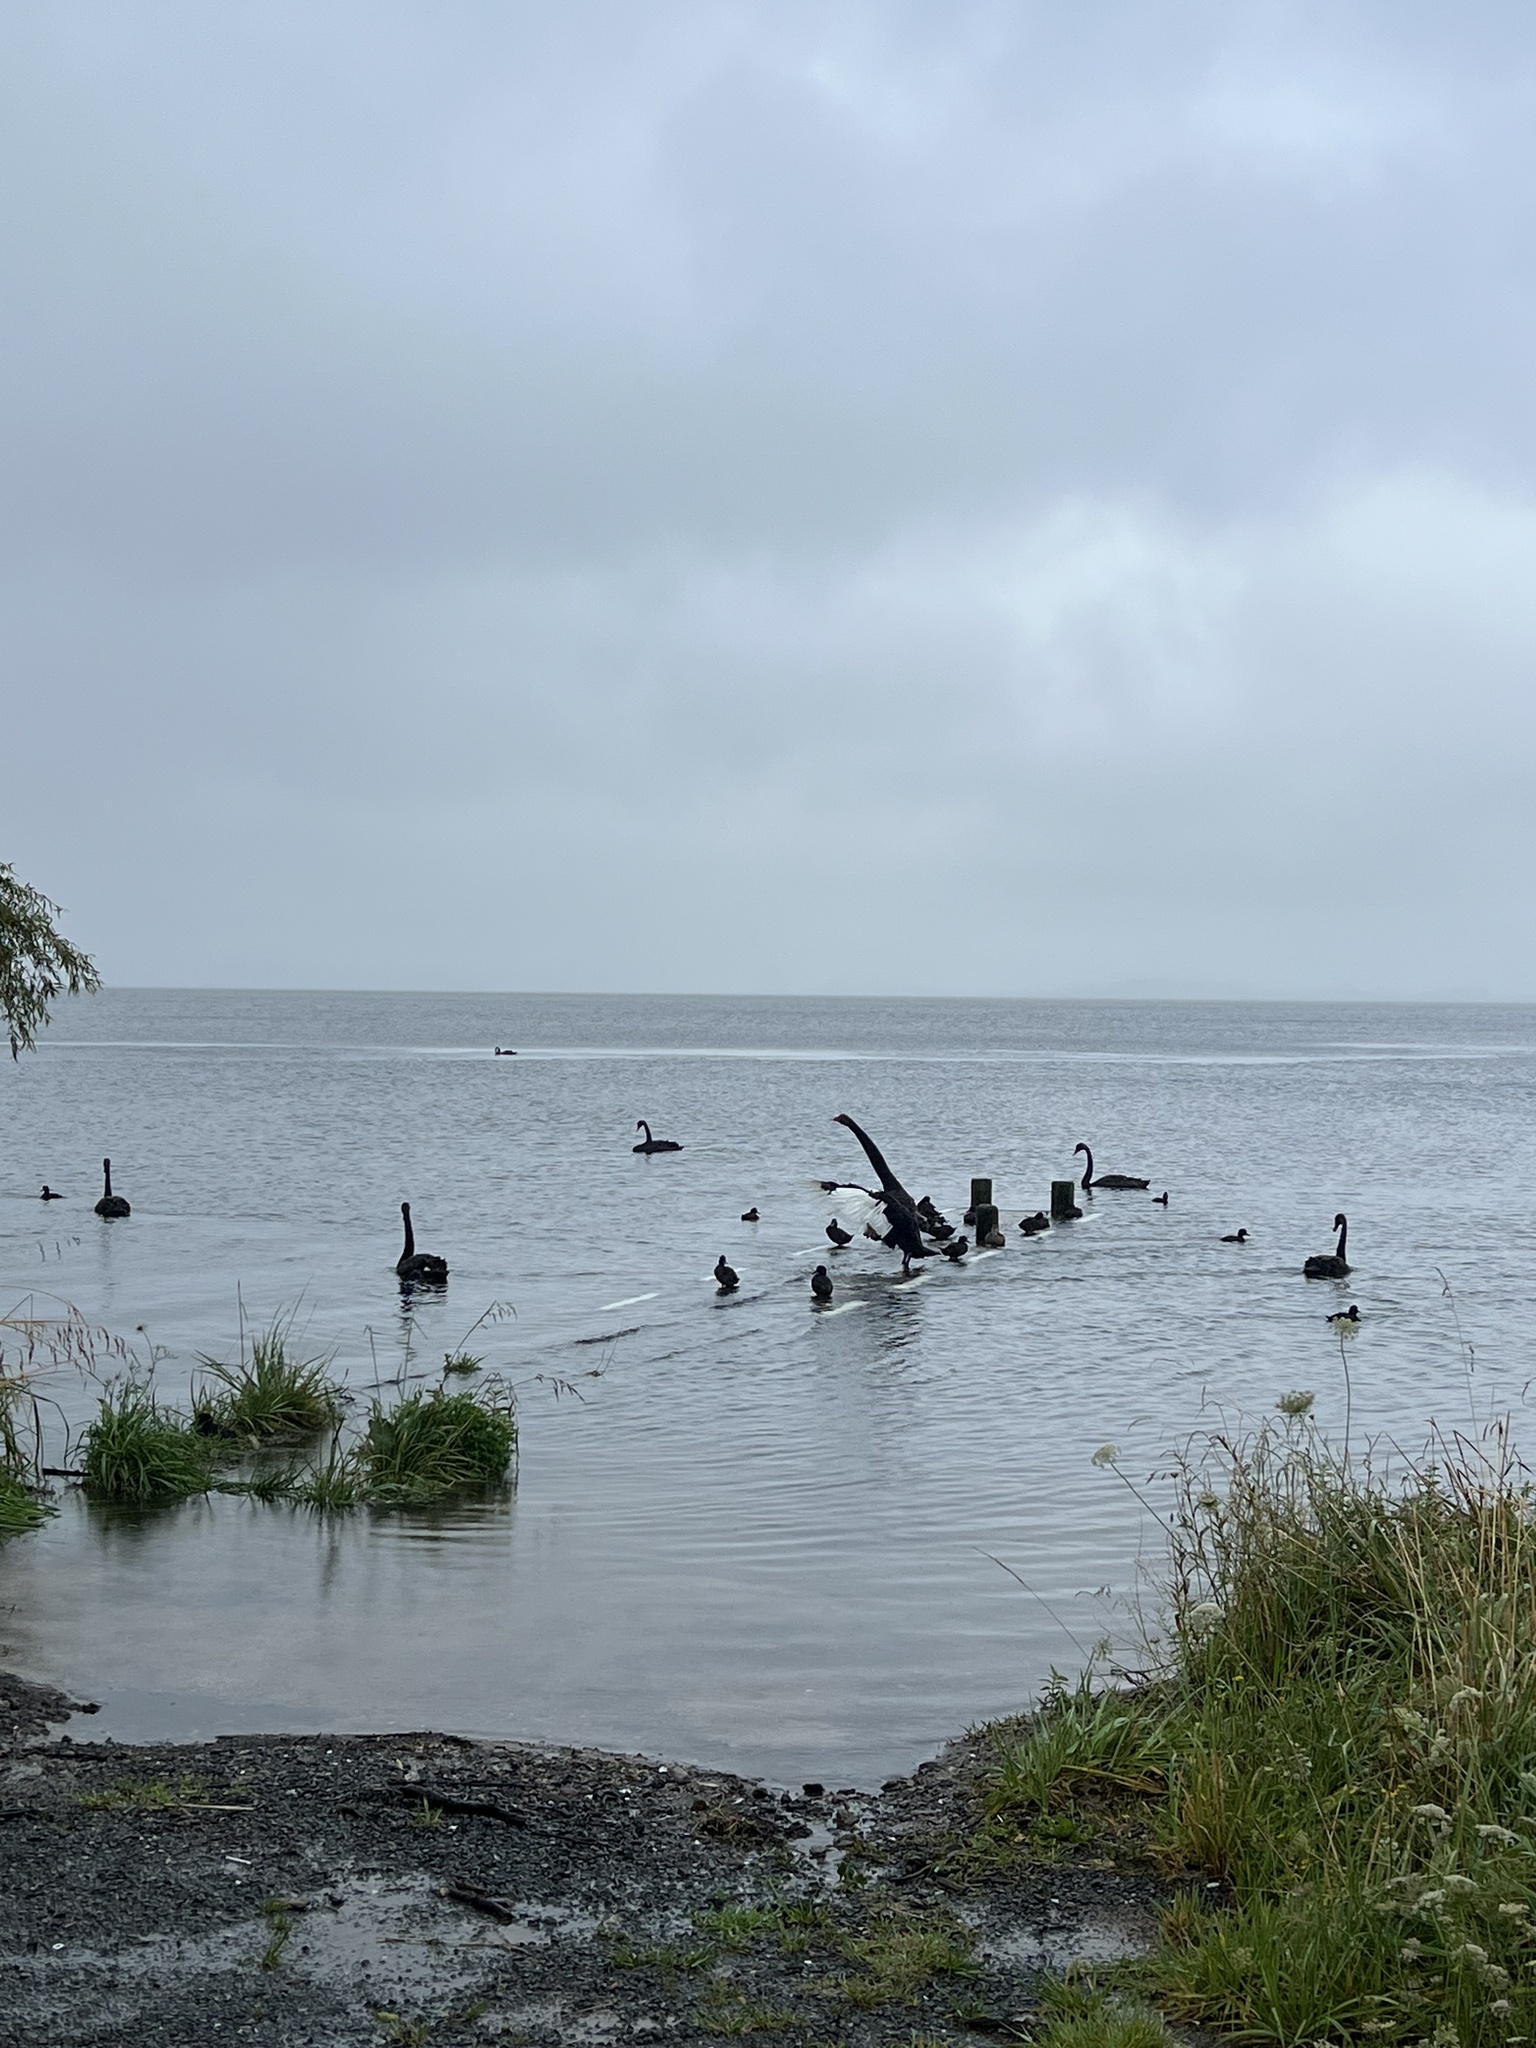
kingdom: Animalia
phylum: Chordata
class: Aves
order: Anseriformes
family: Anatidae
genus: Cygnus
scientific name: Cygnus atratus
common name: Black swan
